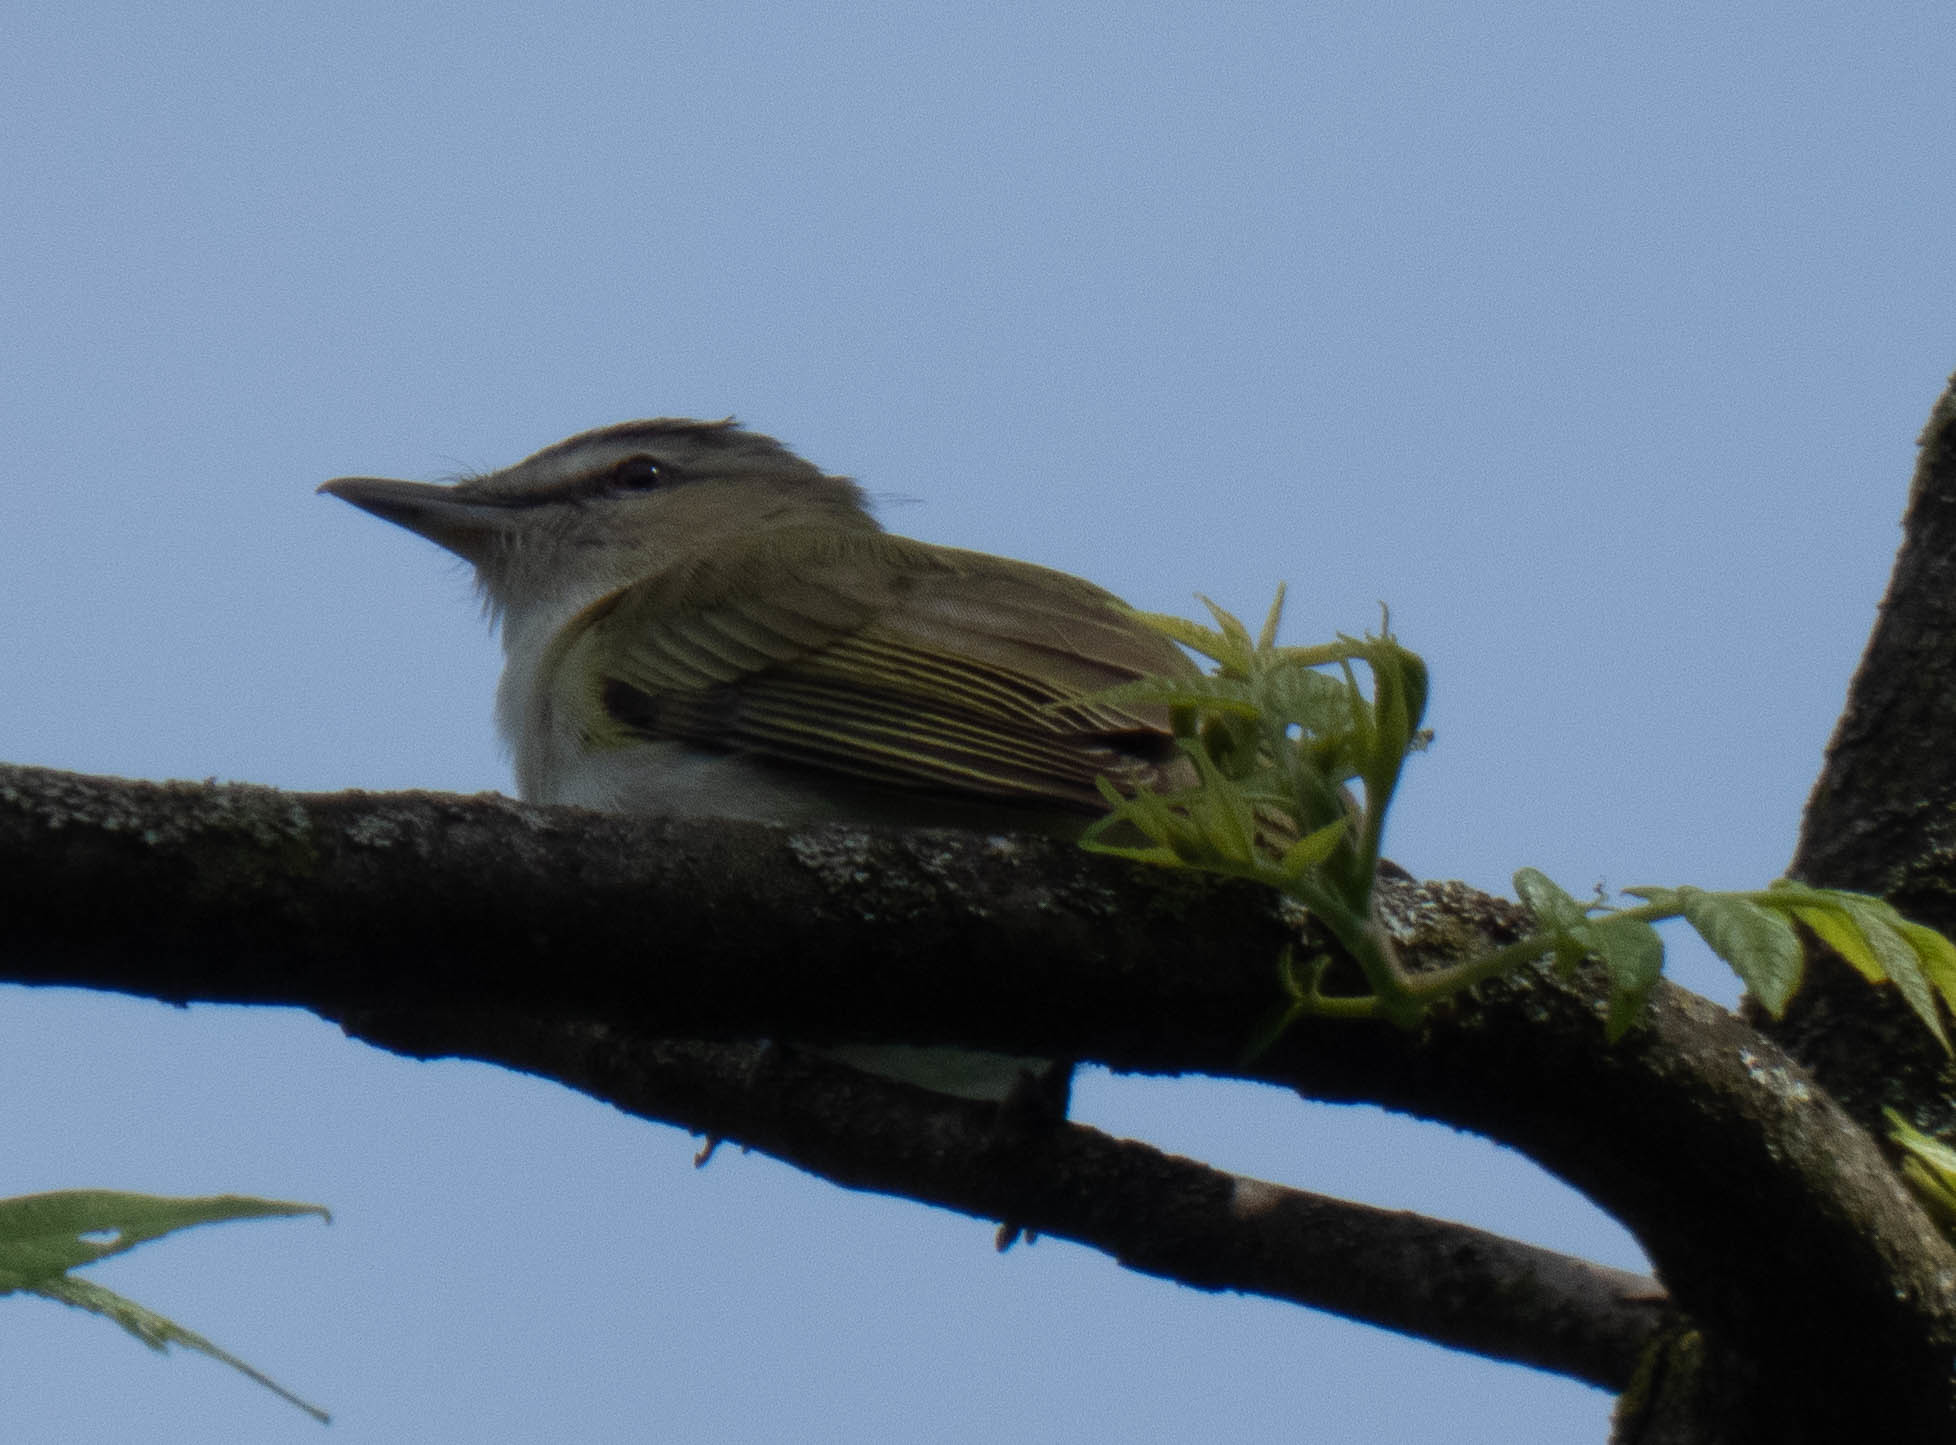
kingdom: Animalia
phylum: Chordata
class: Aves
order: Passeriformes
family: Vireonidae
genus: Vireo
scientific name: Vireo olivaceus
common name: Red-eyed vireo
